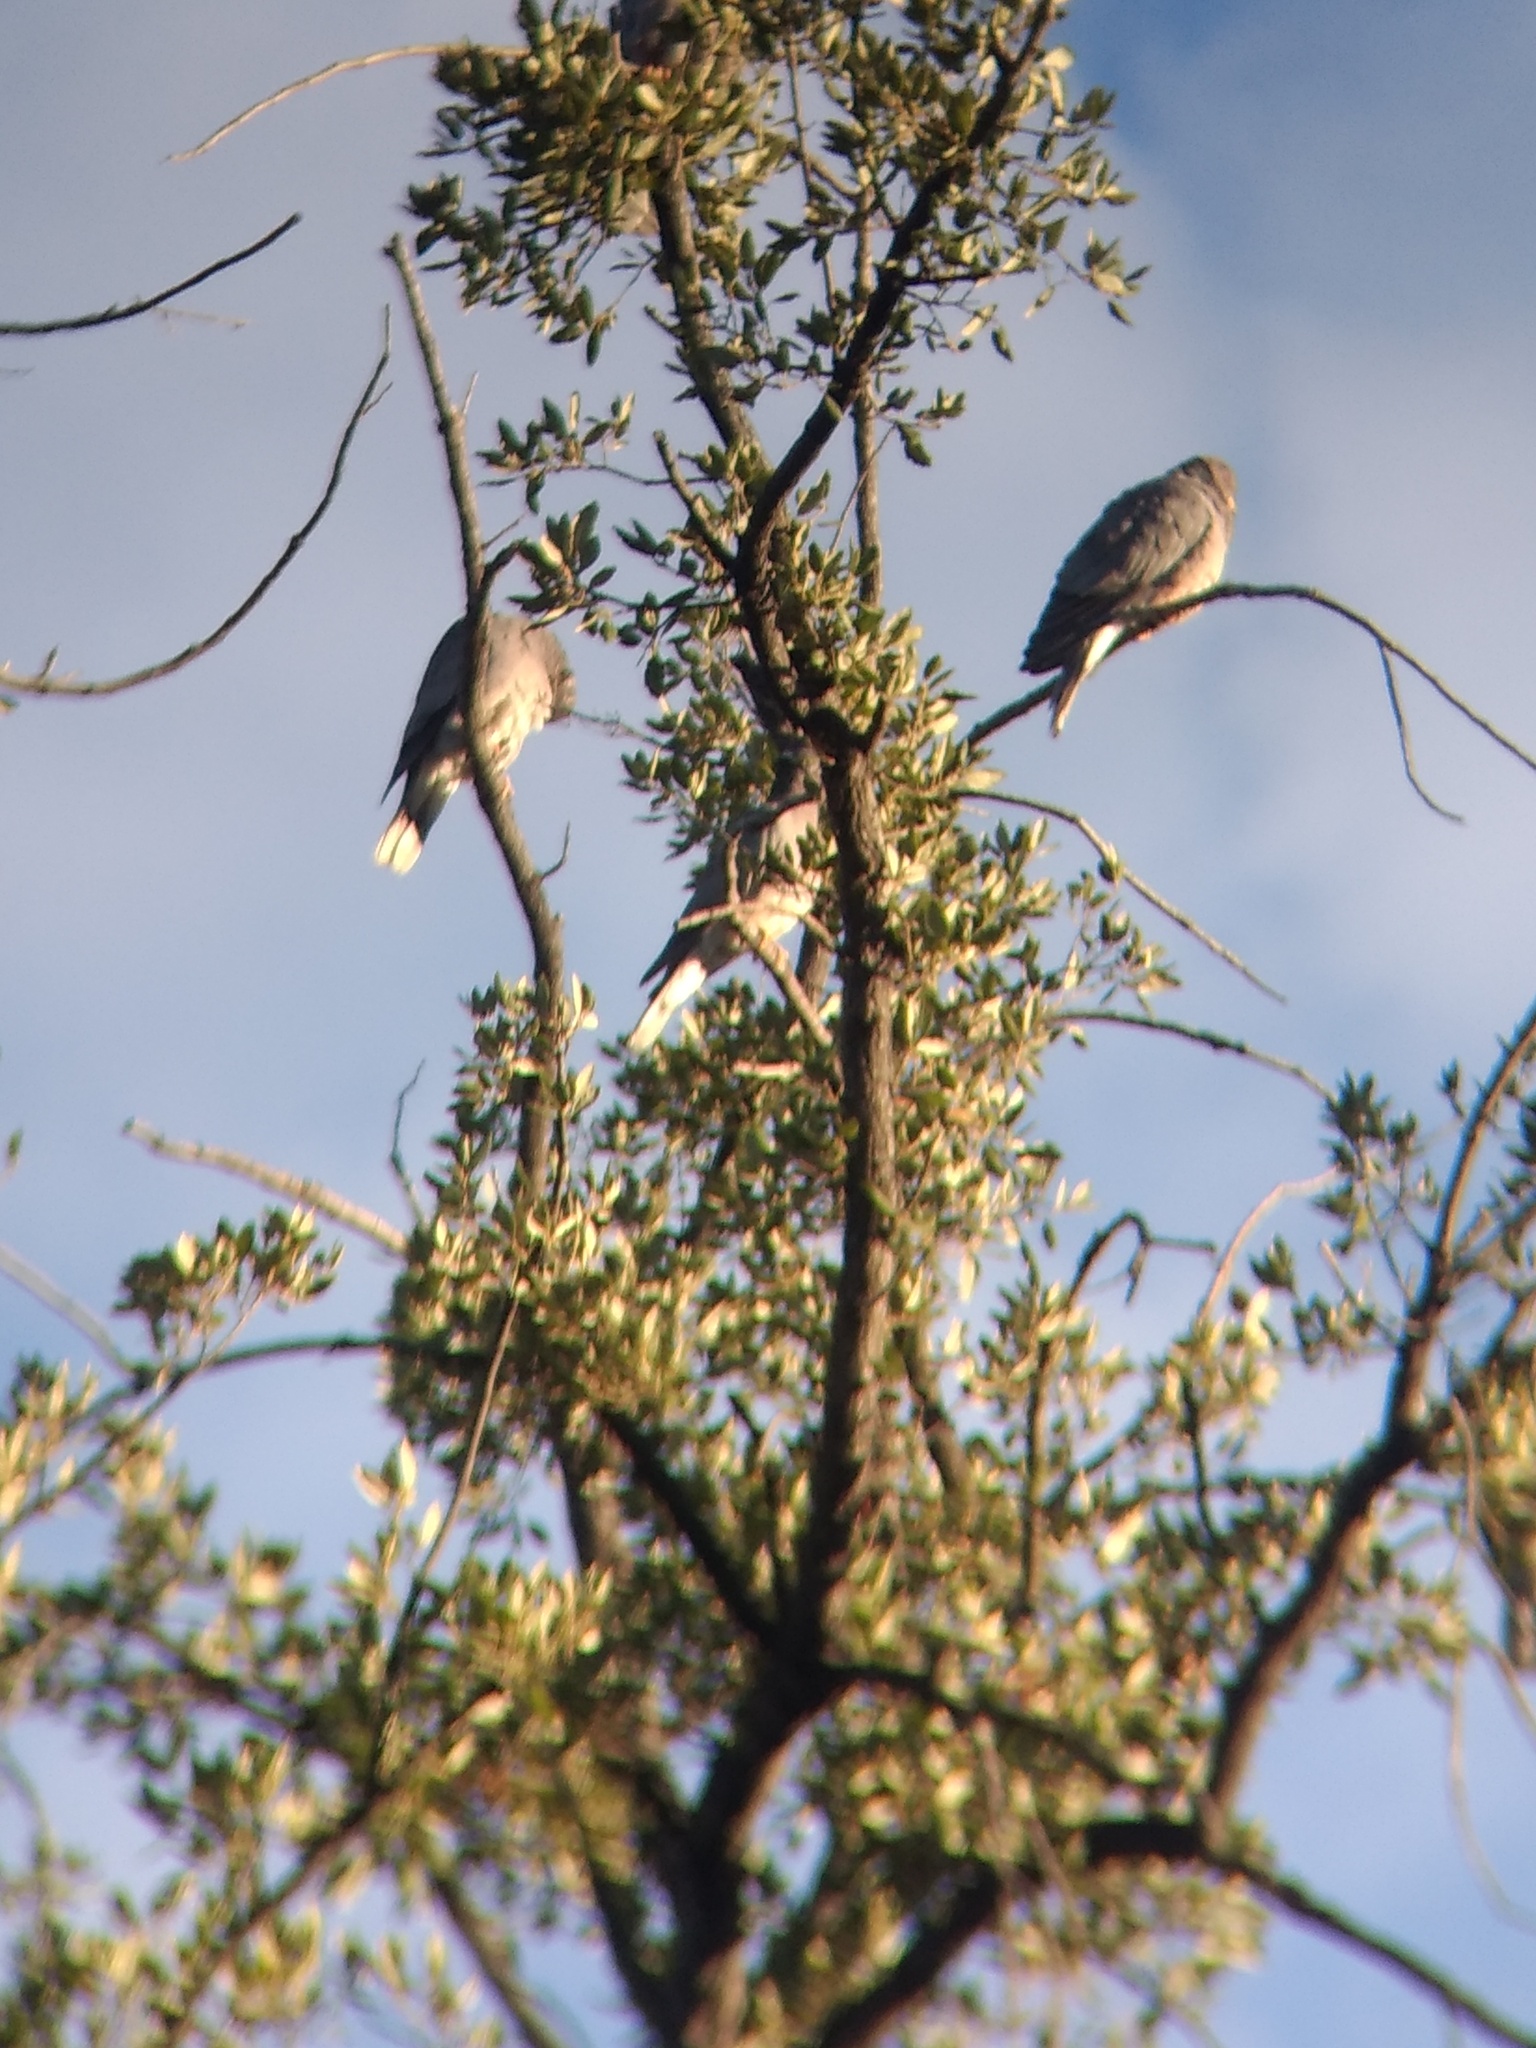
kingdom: Animalia
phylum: Chordata
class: Aves
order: Columbiformes
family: Columbidae
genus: Patagioenas
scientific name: Patagioenas fasciata
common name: Band-tailed pigeon
